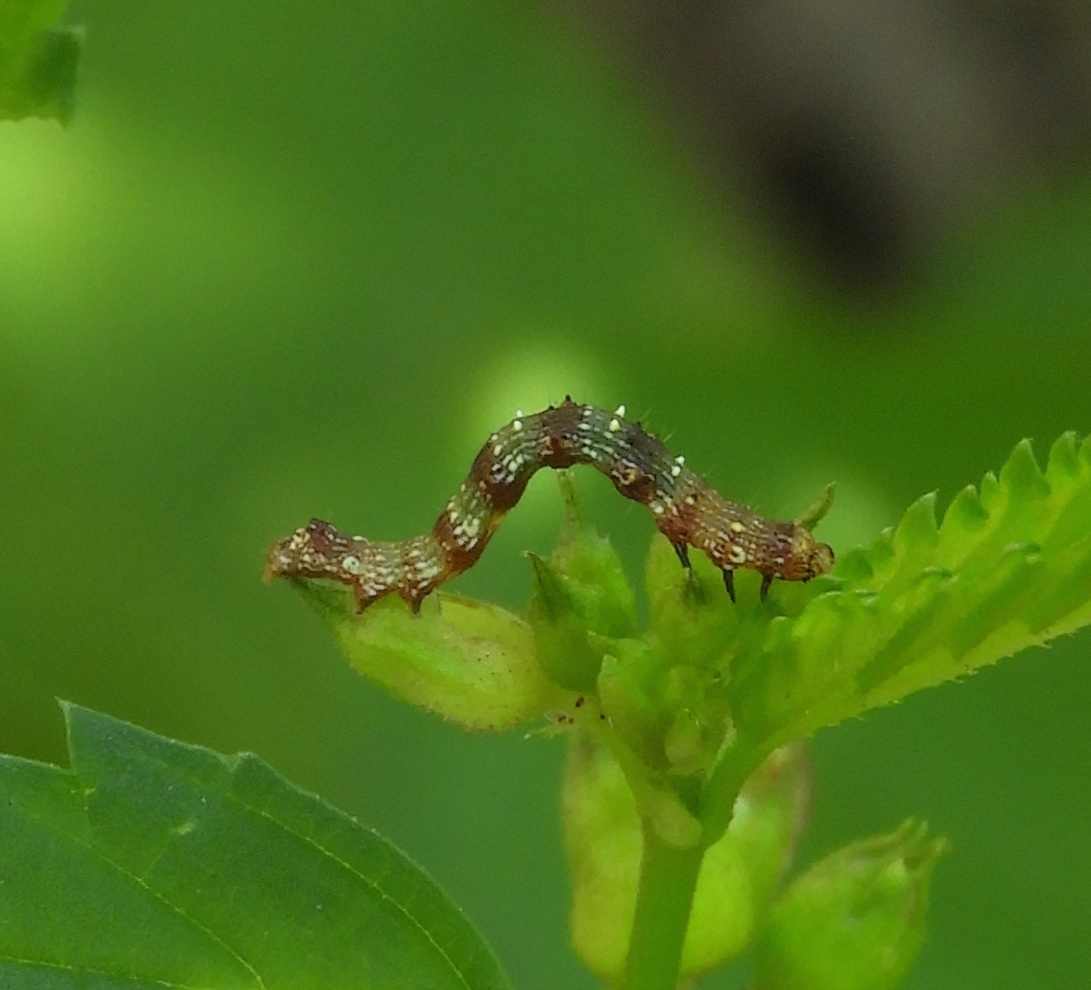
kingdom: Animalia
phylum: Arthropoda
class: Insecta
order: Lepidoptera
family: Noctuidae
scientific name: Noctuidae
